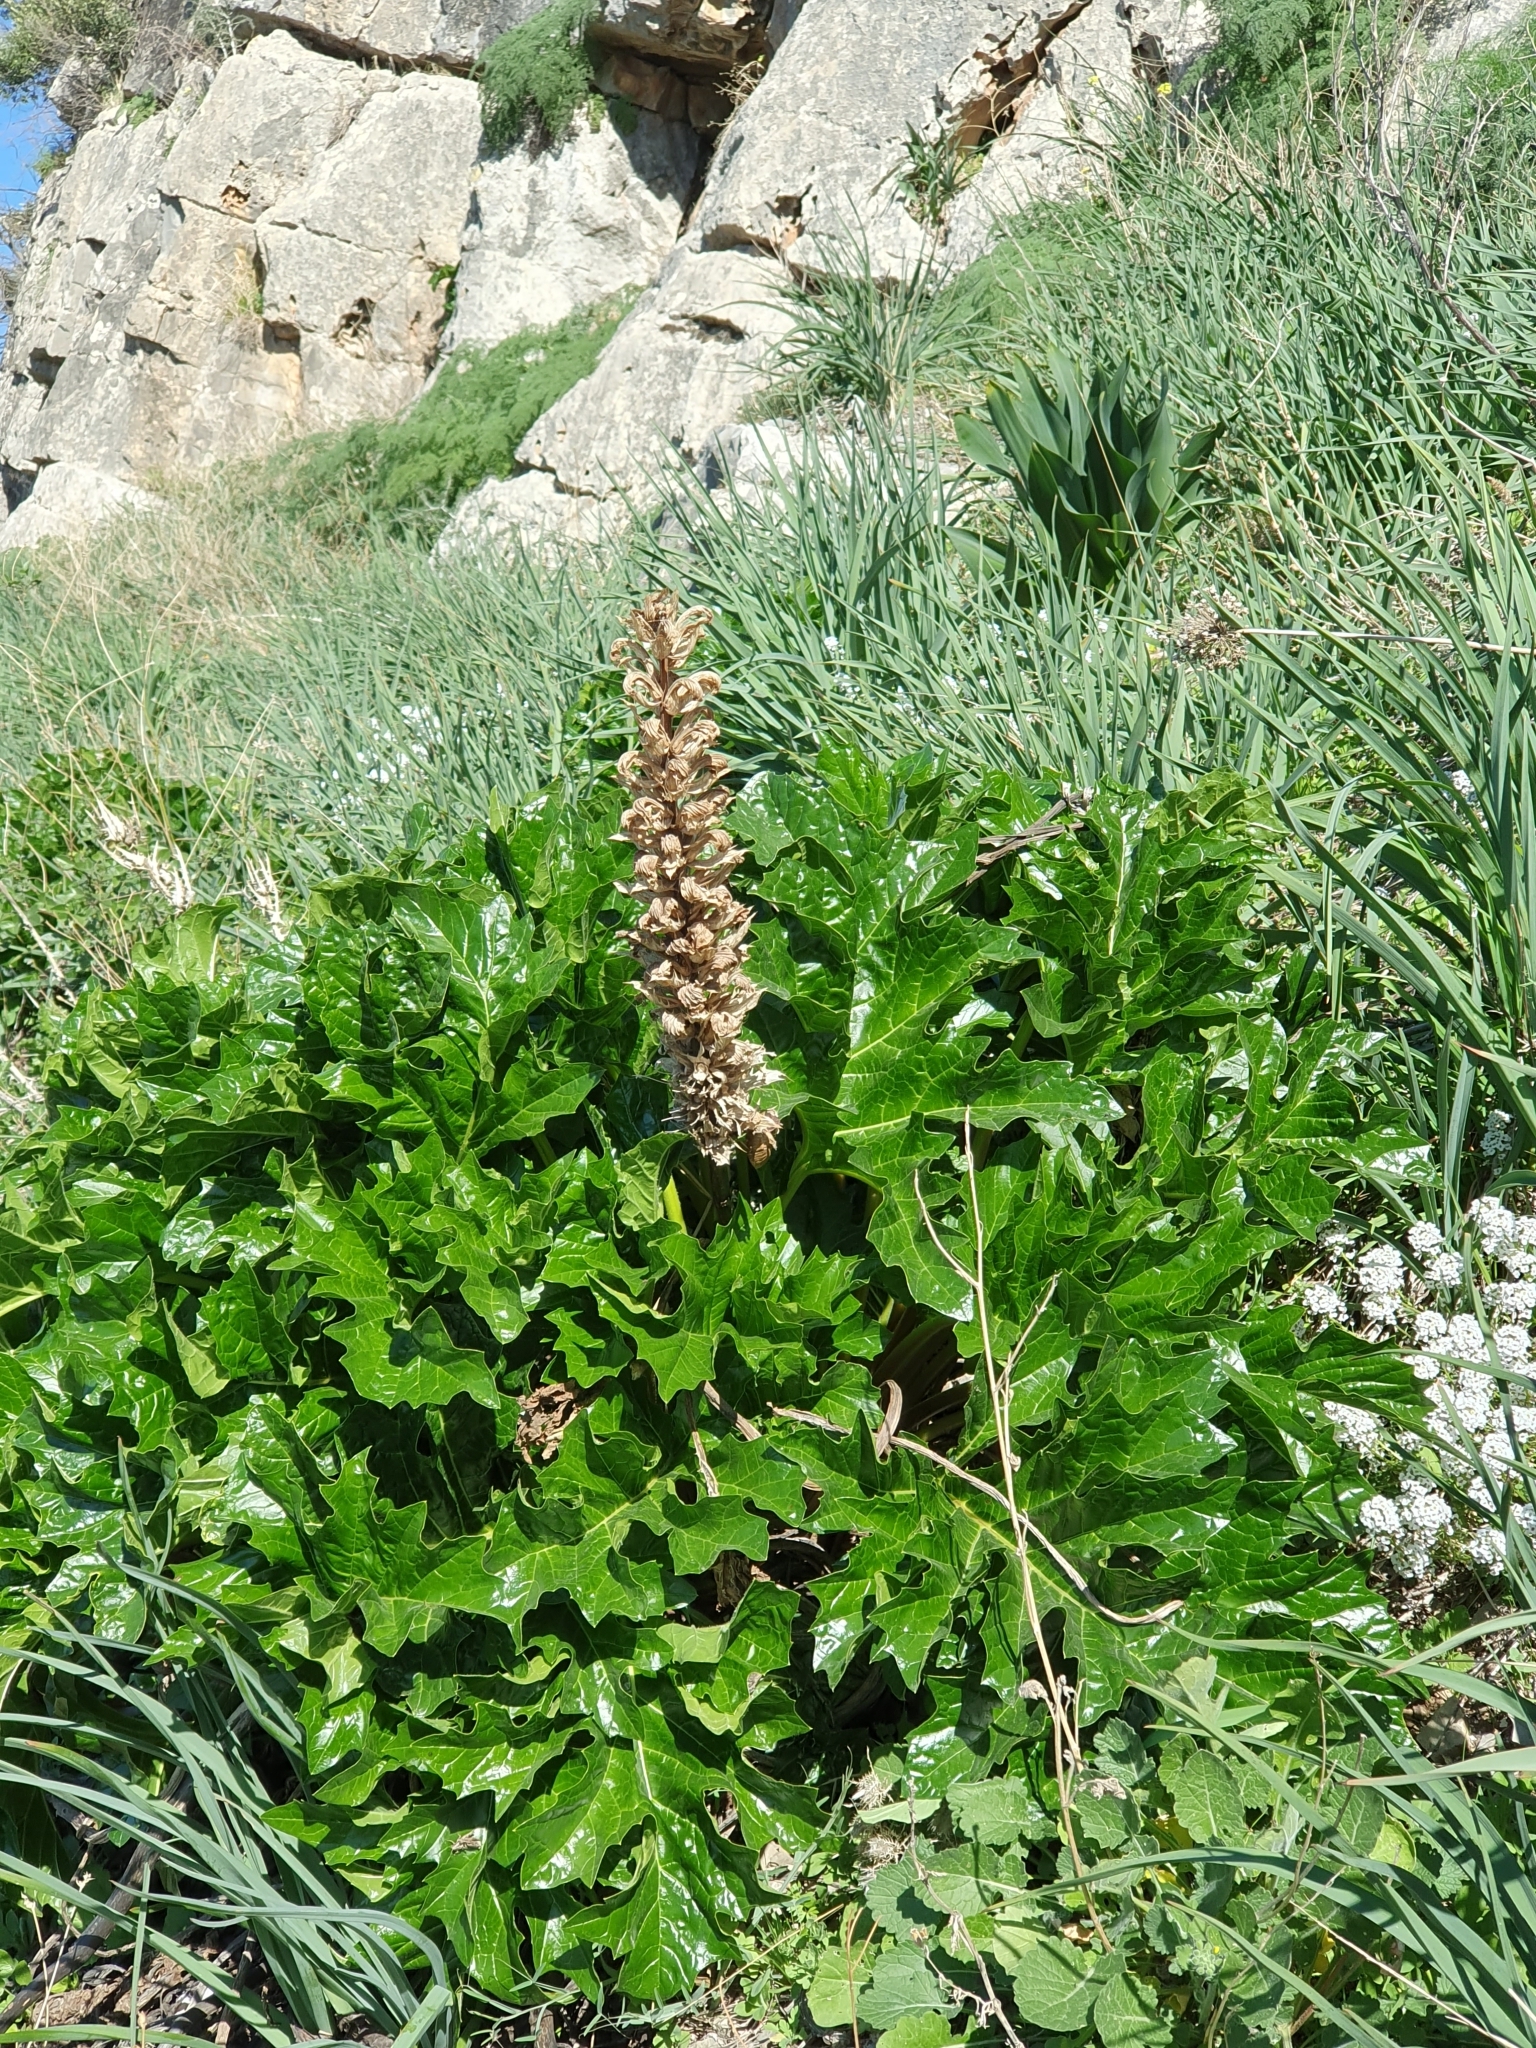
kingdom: Plantae
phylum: Tracheophyta
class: Magnoliopsida
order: Lamiales
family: Acanthaceae
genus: Acanthus
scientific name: Acanthus mollis
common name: Bear's-breech
